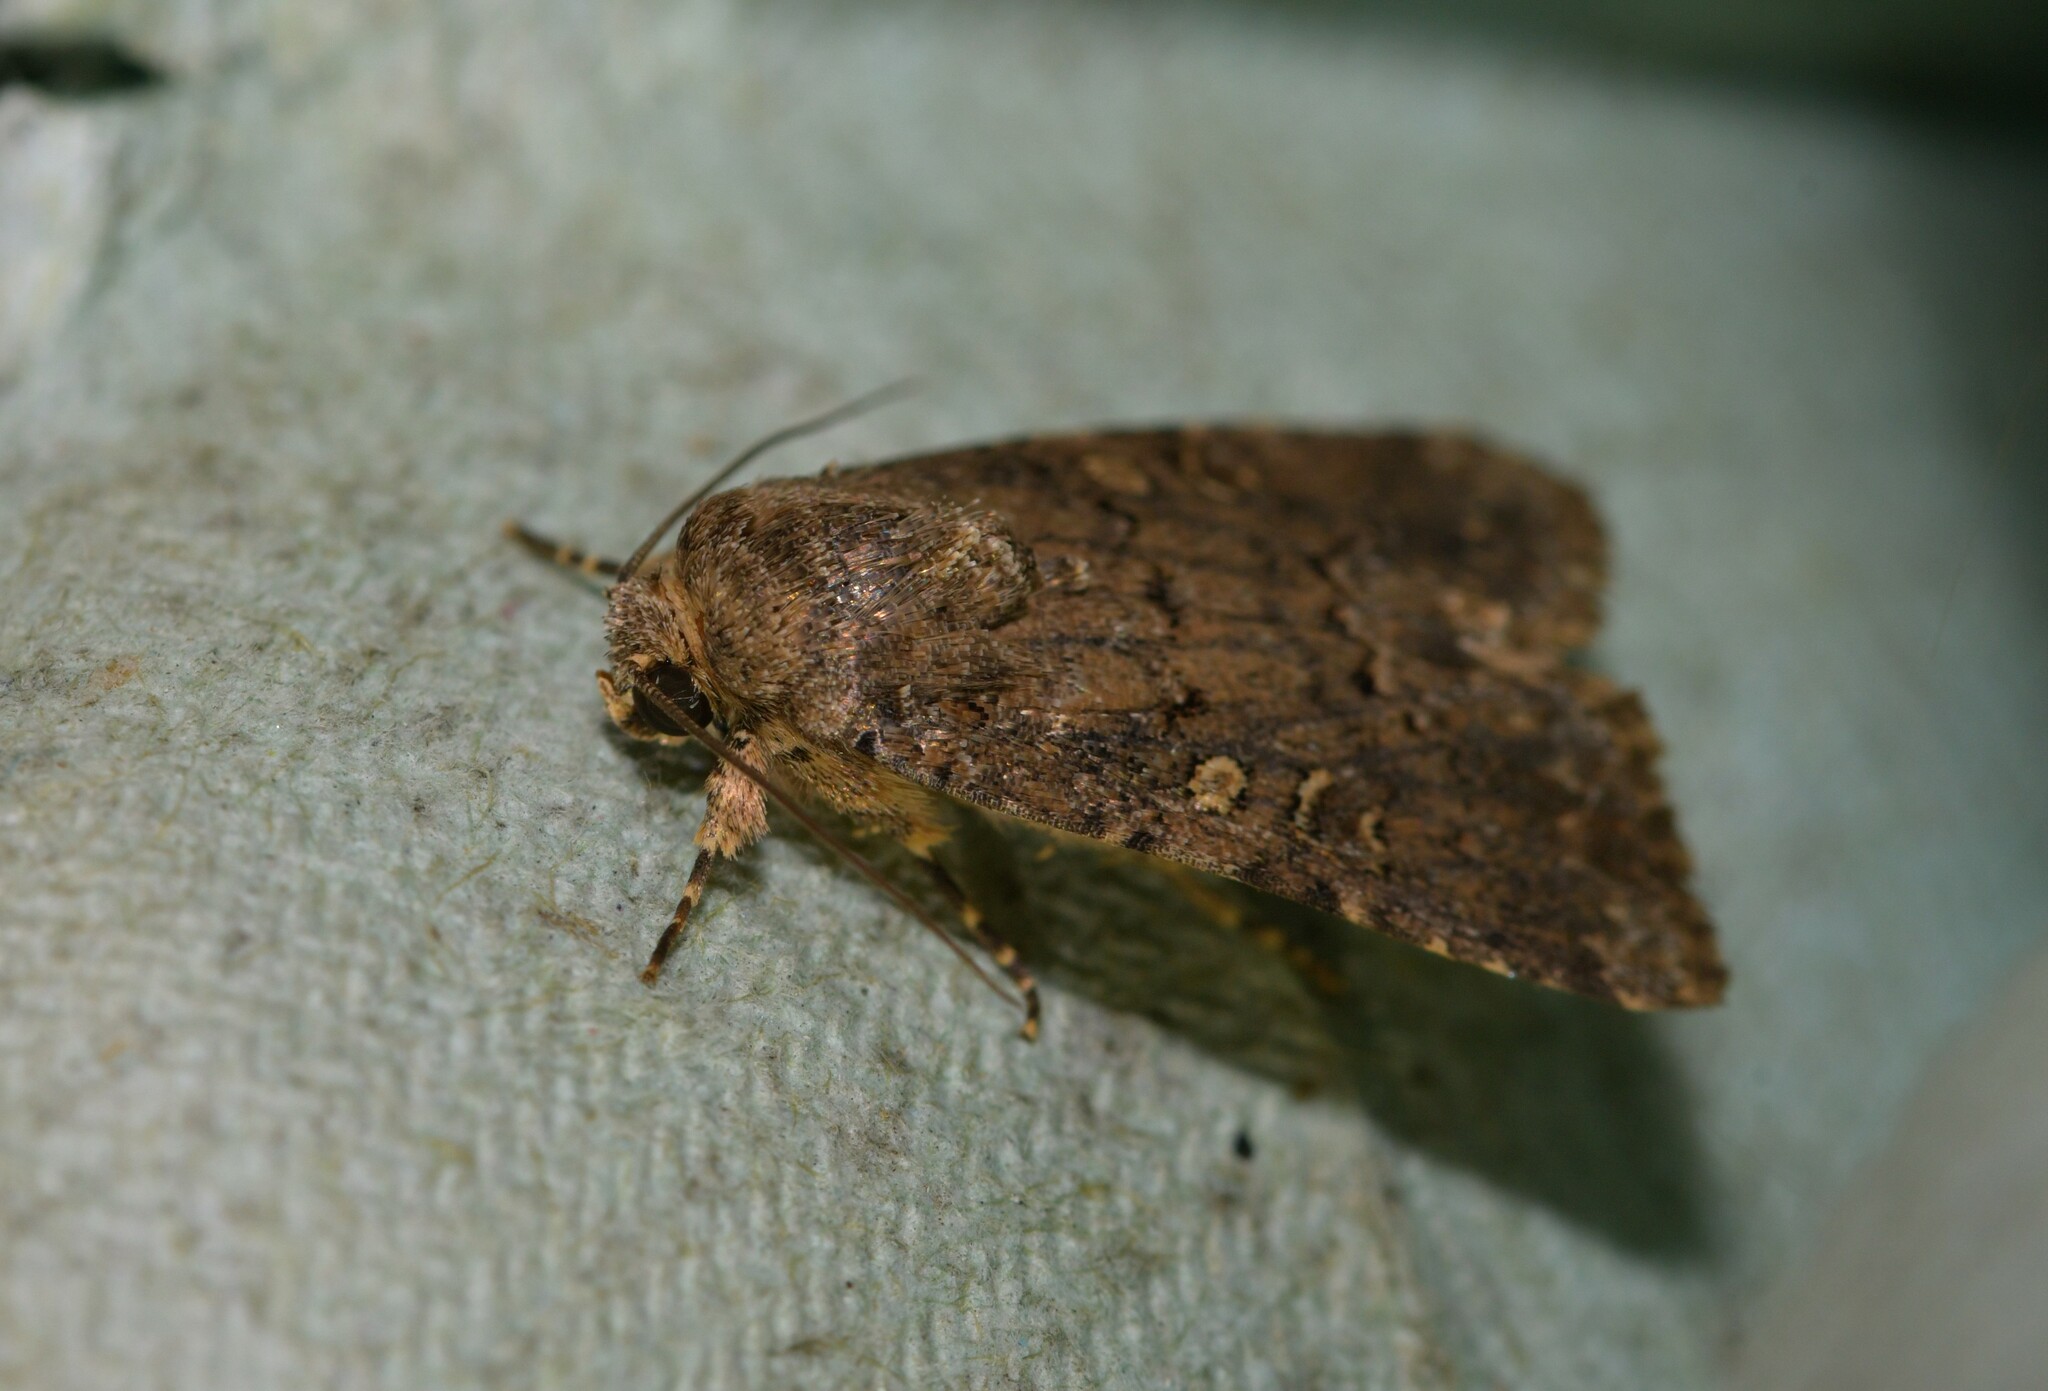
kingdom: Animalia
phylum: Arthropoda
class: Insecta
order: Lepidoptera
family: Noctuidae
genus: Spodoptera
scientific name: Spodoptera cilium
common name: Dark mottled willow
